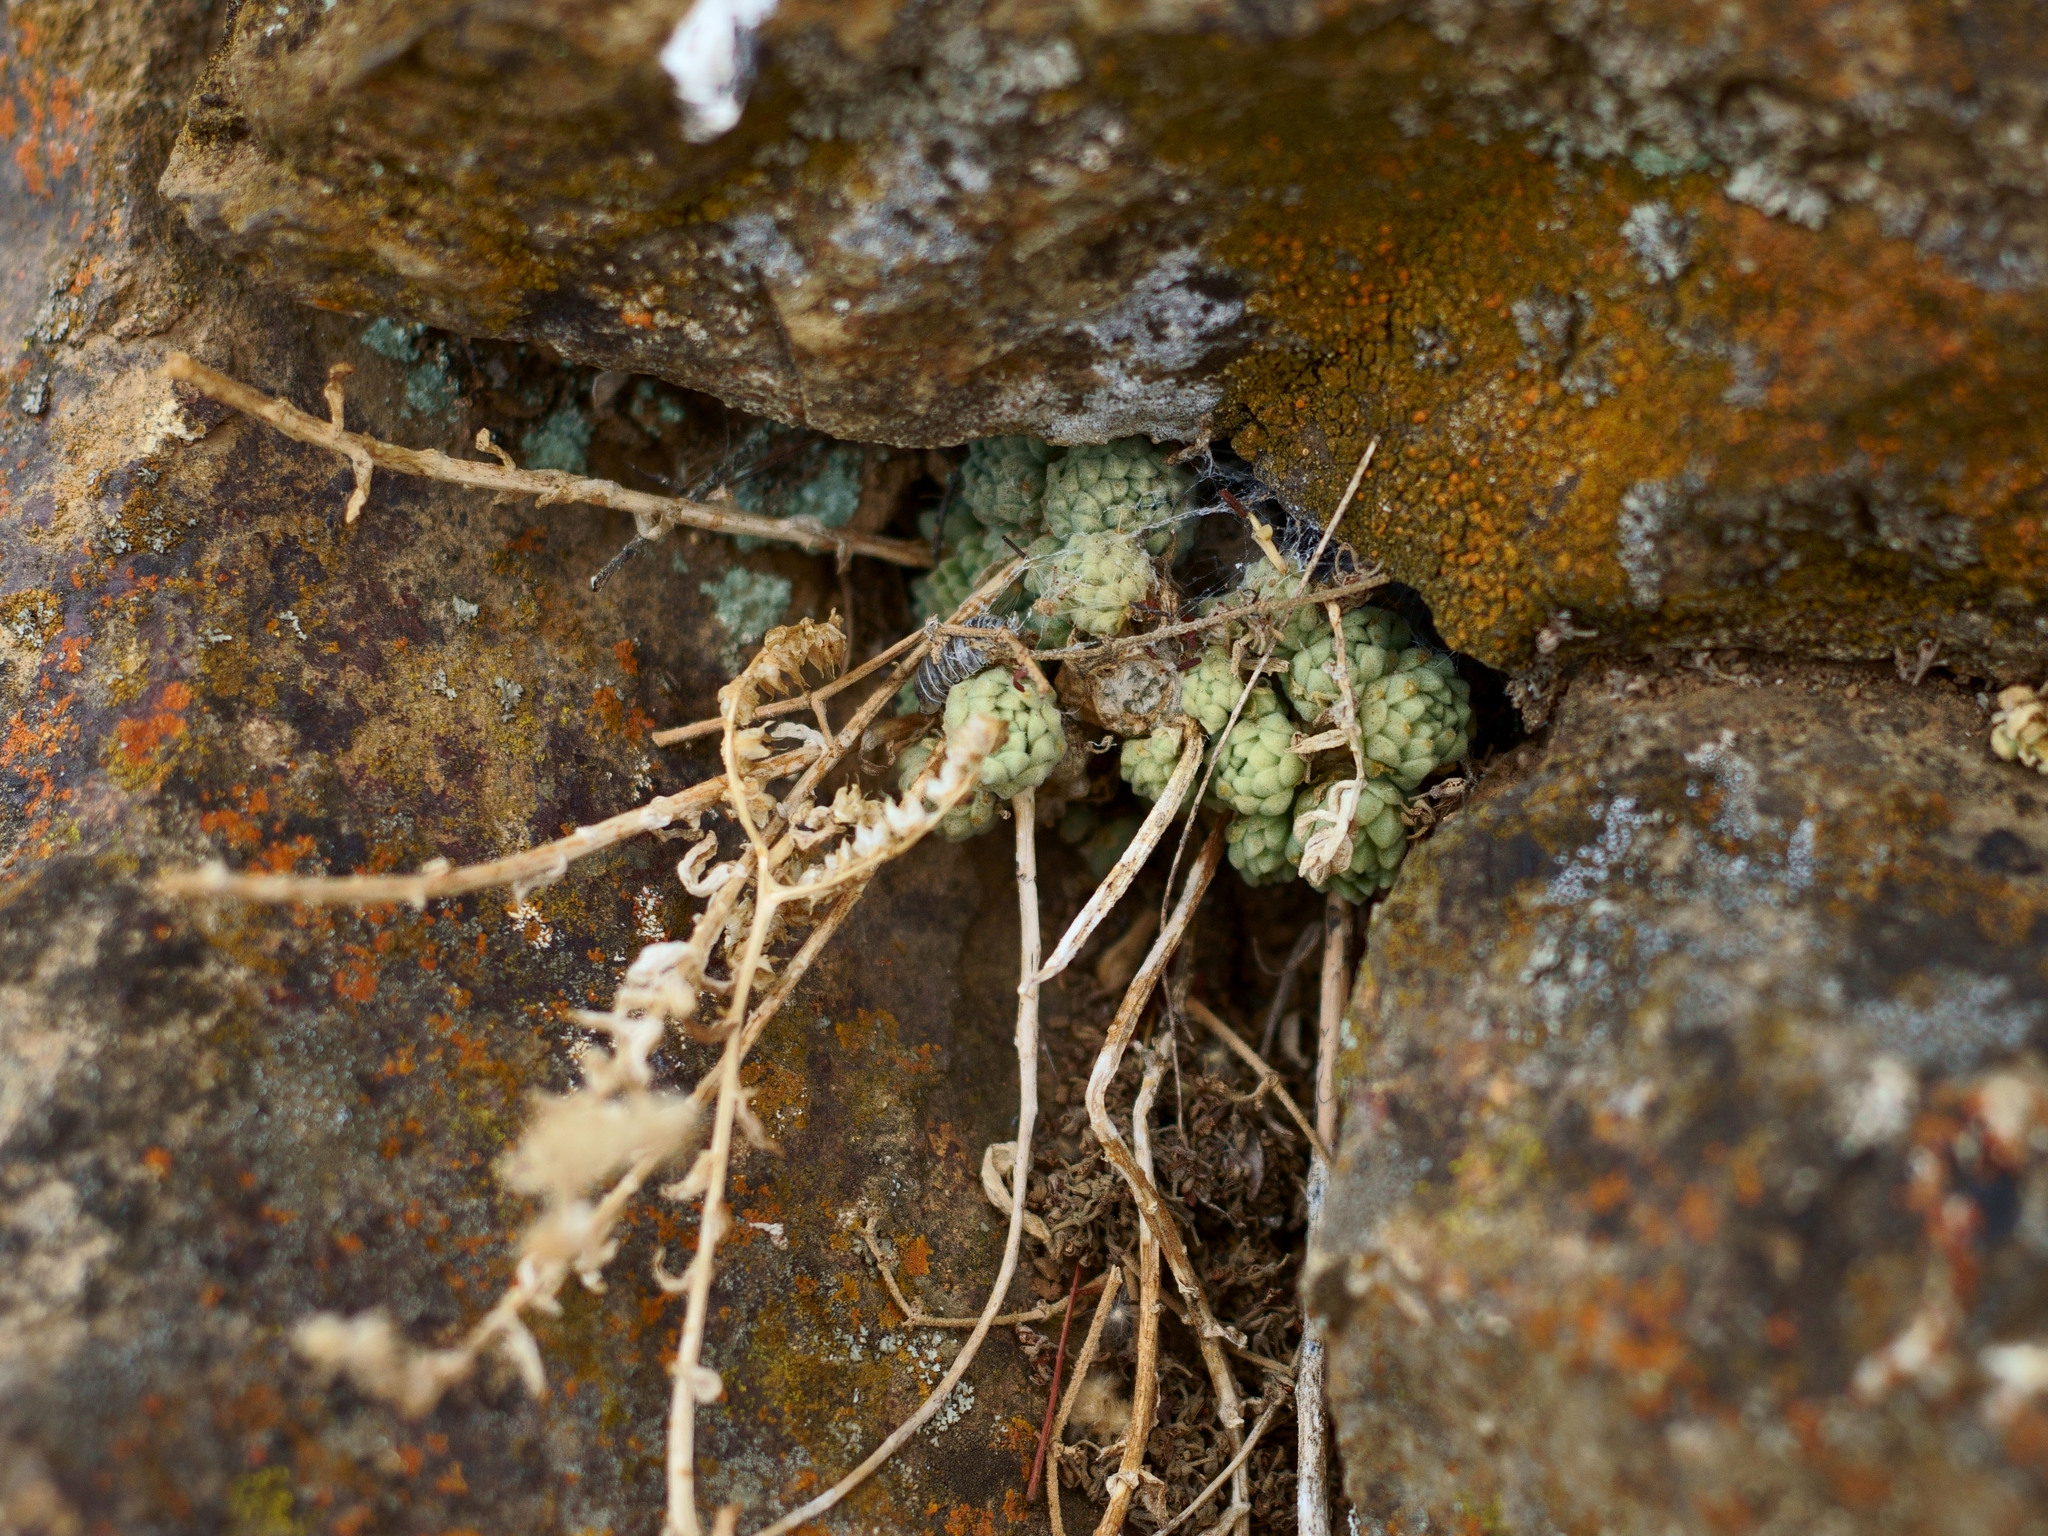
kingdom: Plantae
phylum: Tracheophyta
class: Magnoliopsida
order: Saxifragales
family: Crassulaceae
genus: Sedum
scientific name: Sedum hemsleyanum
